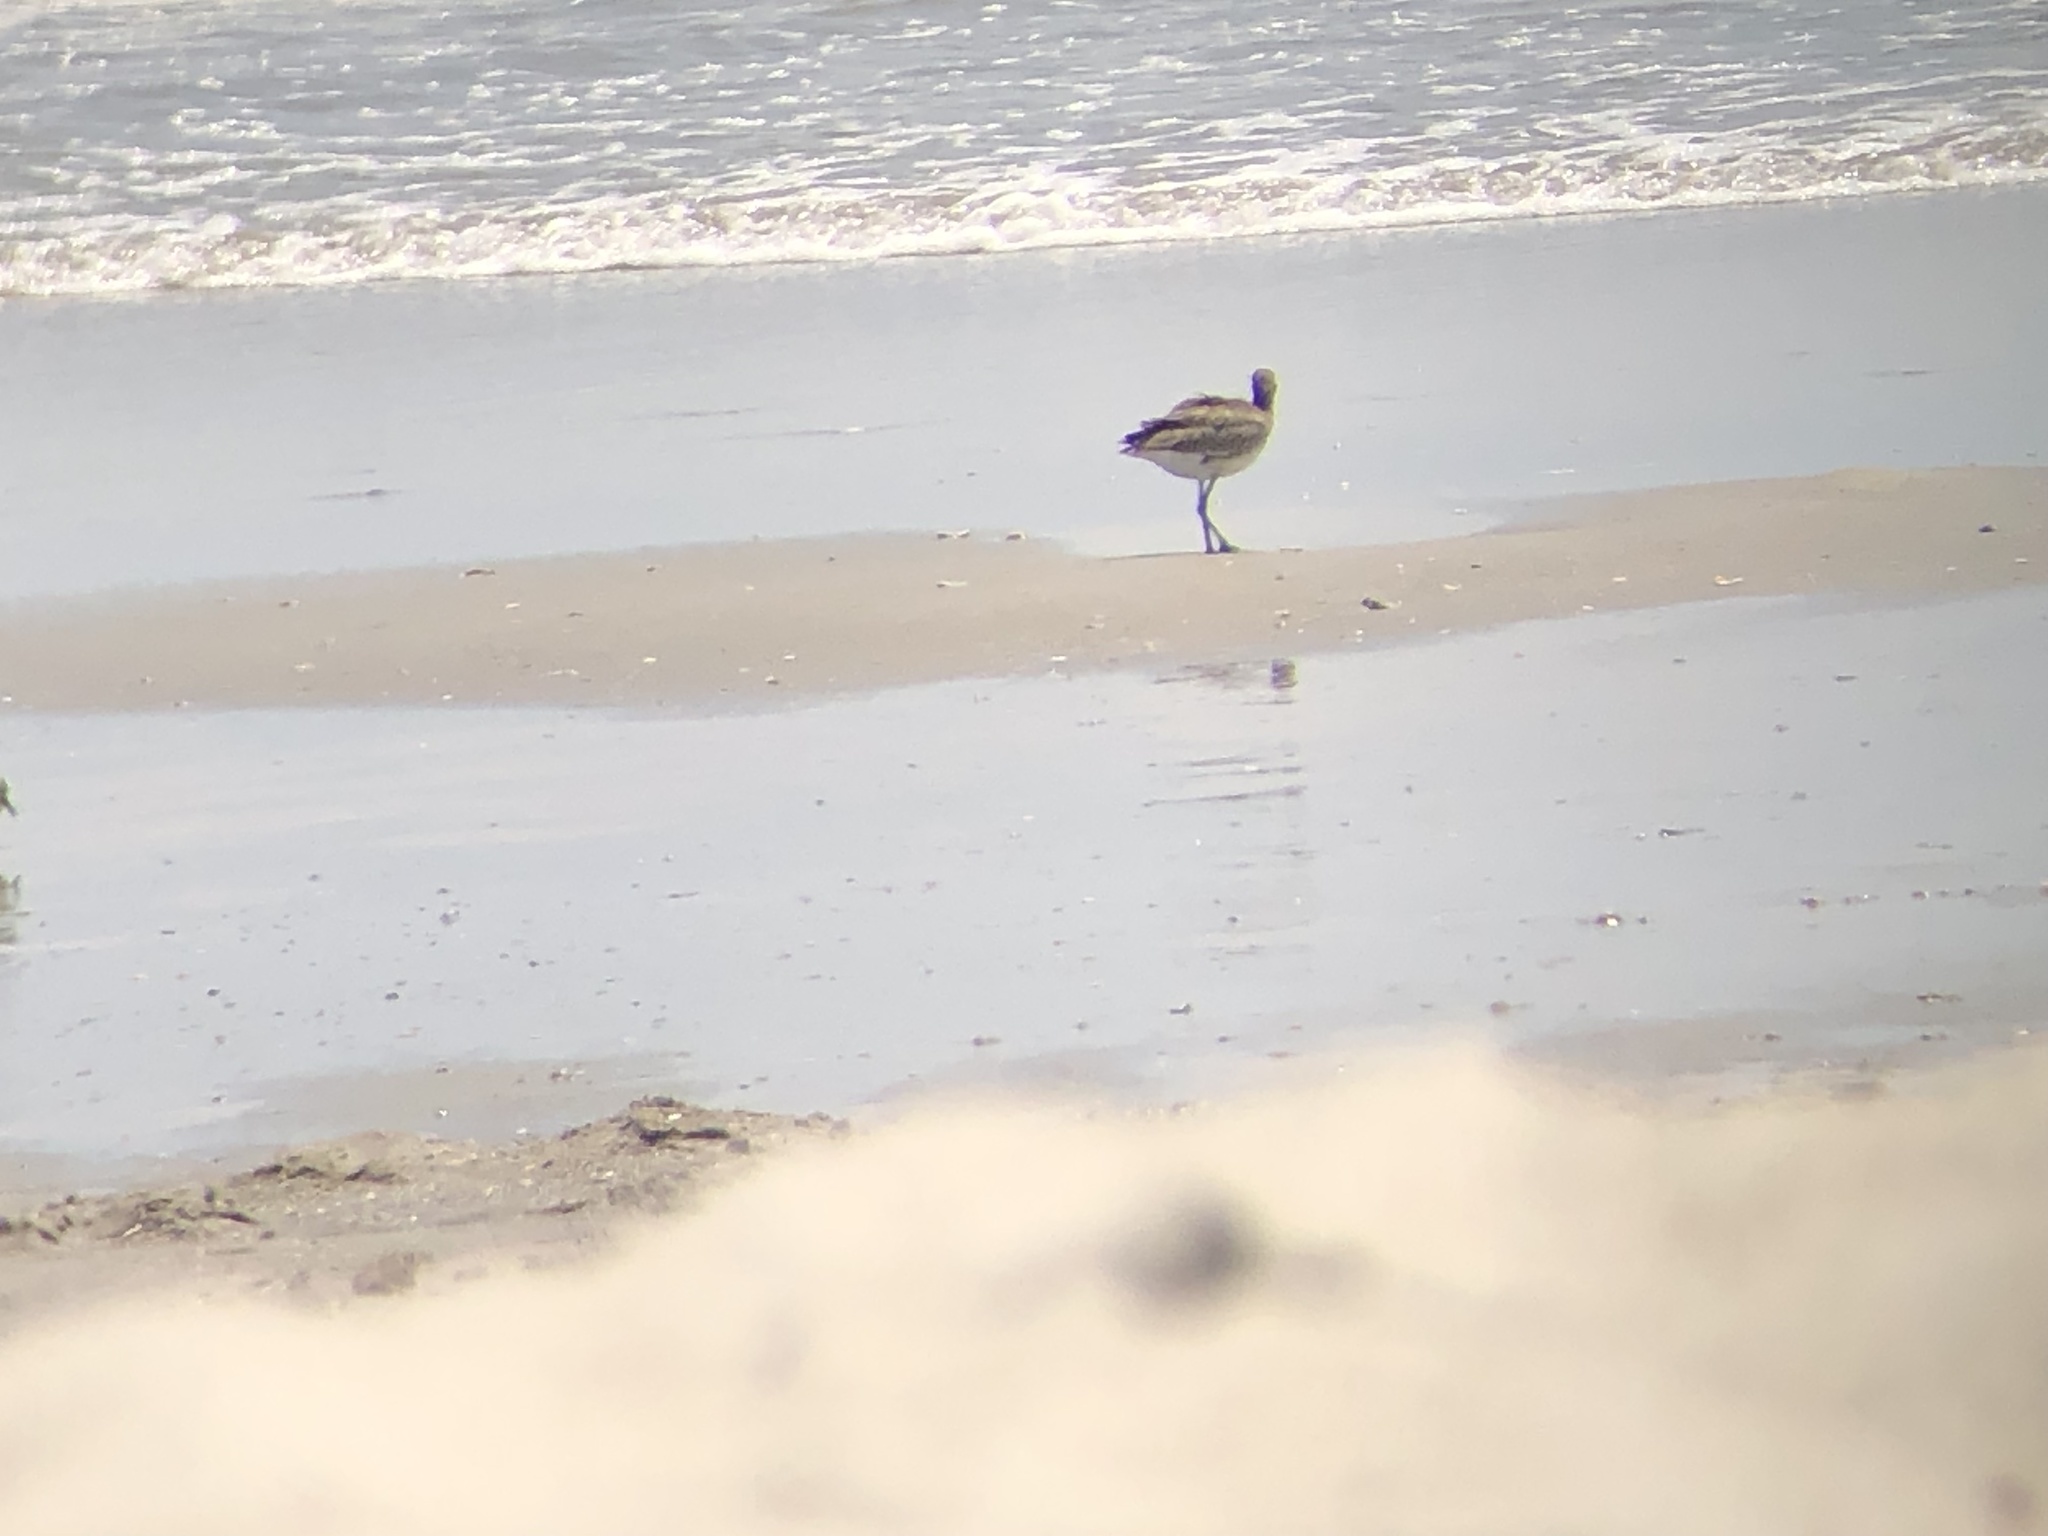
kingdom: Animalia
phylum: Chordata
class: Aves
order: Charadriiformes
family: Scolopacidae
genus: Tringa
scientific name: Tringa semipalmata
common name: Willet
